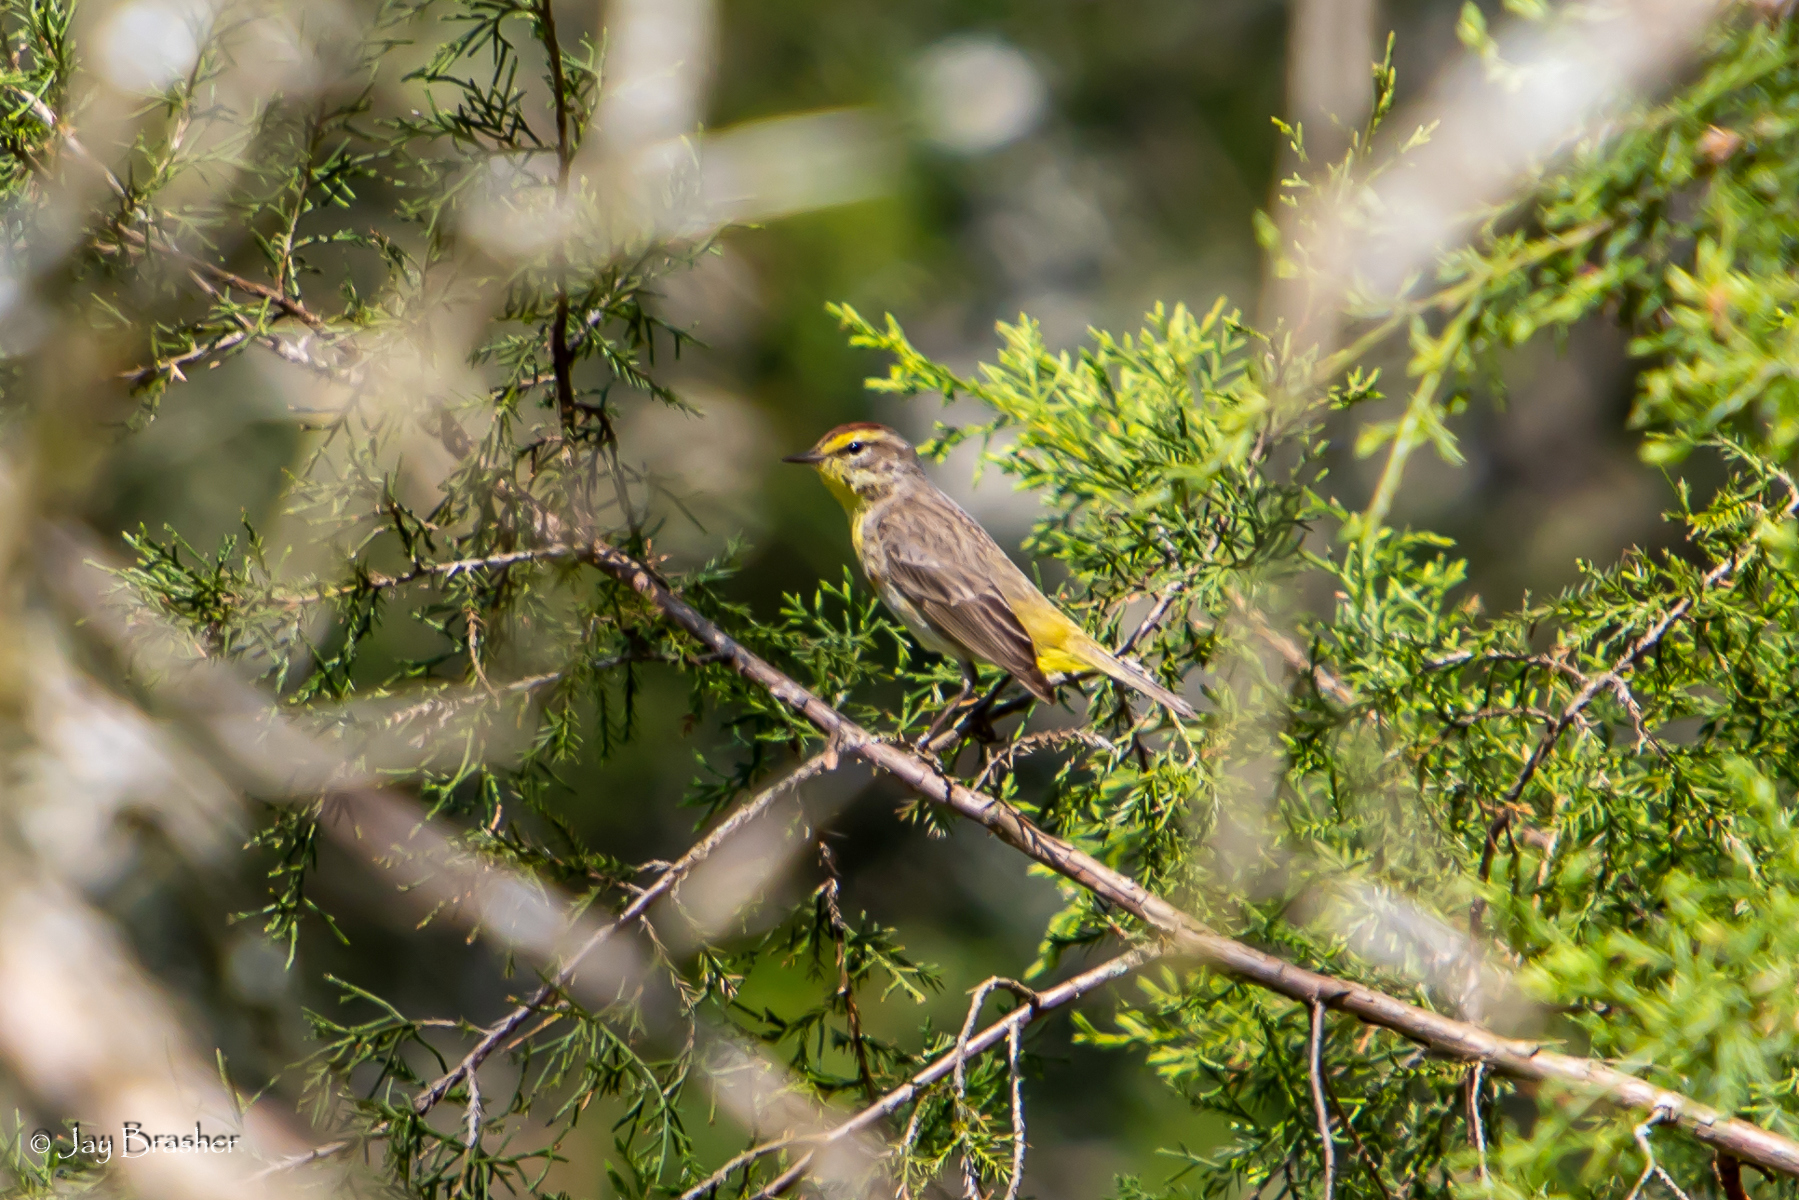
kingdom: Animalia
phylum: Chordata
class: Aves
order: Passeriformes
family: Parulidae
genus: Setophaga
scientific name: Setophaga palmarum
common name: Palm warbler
